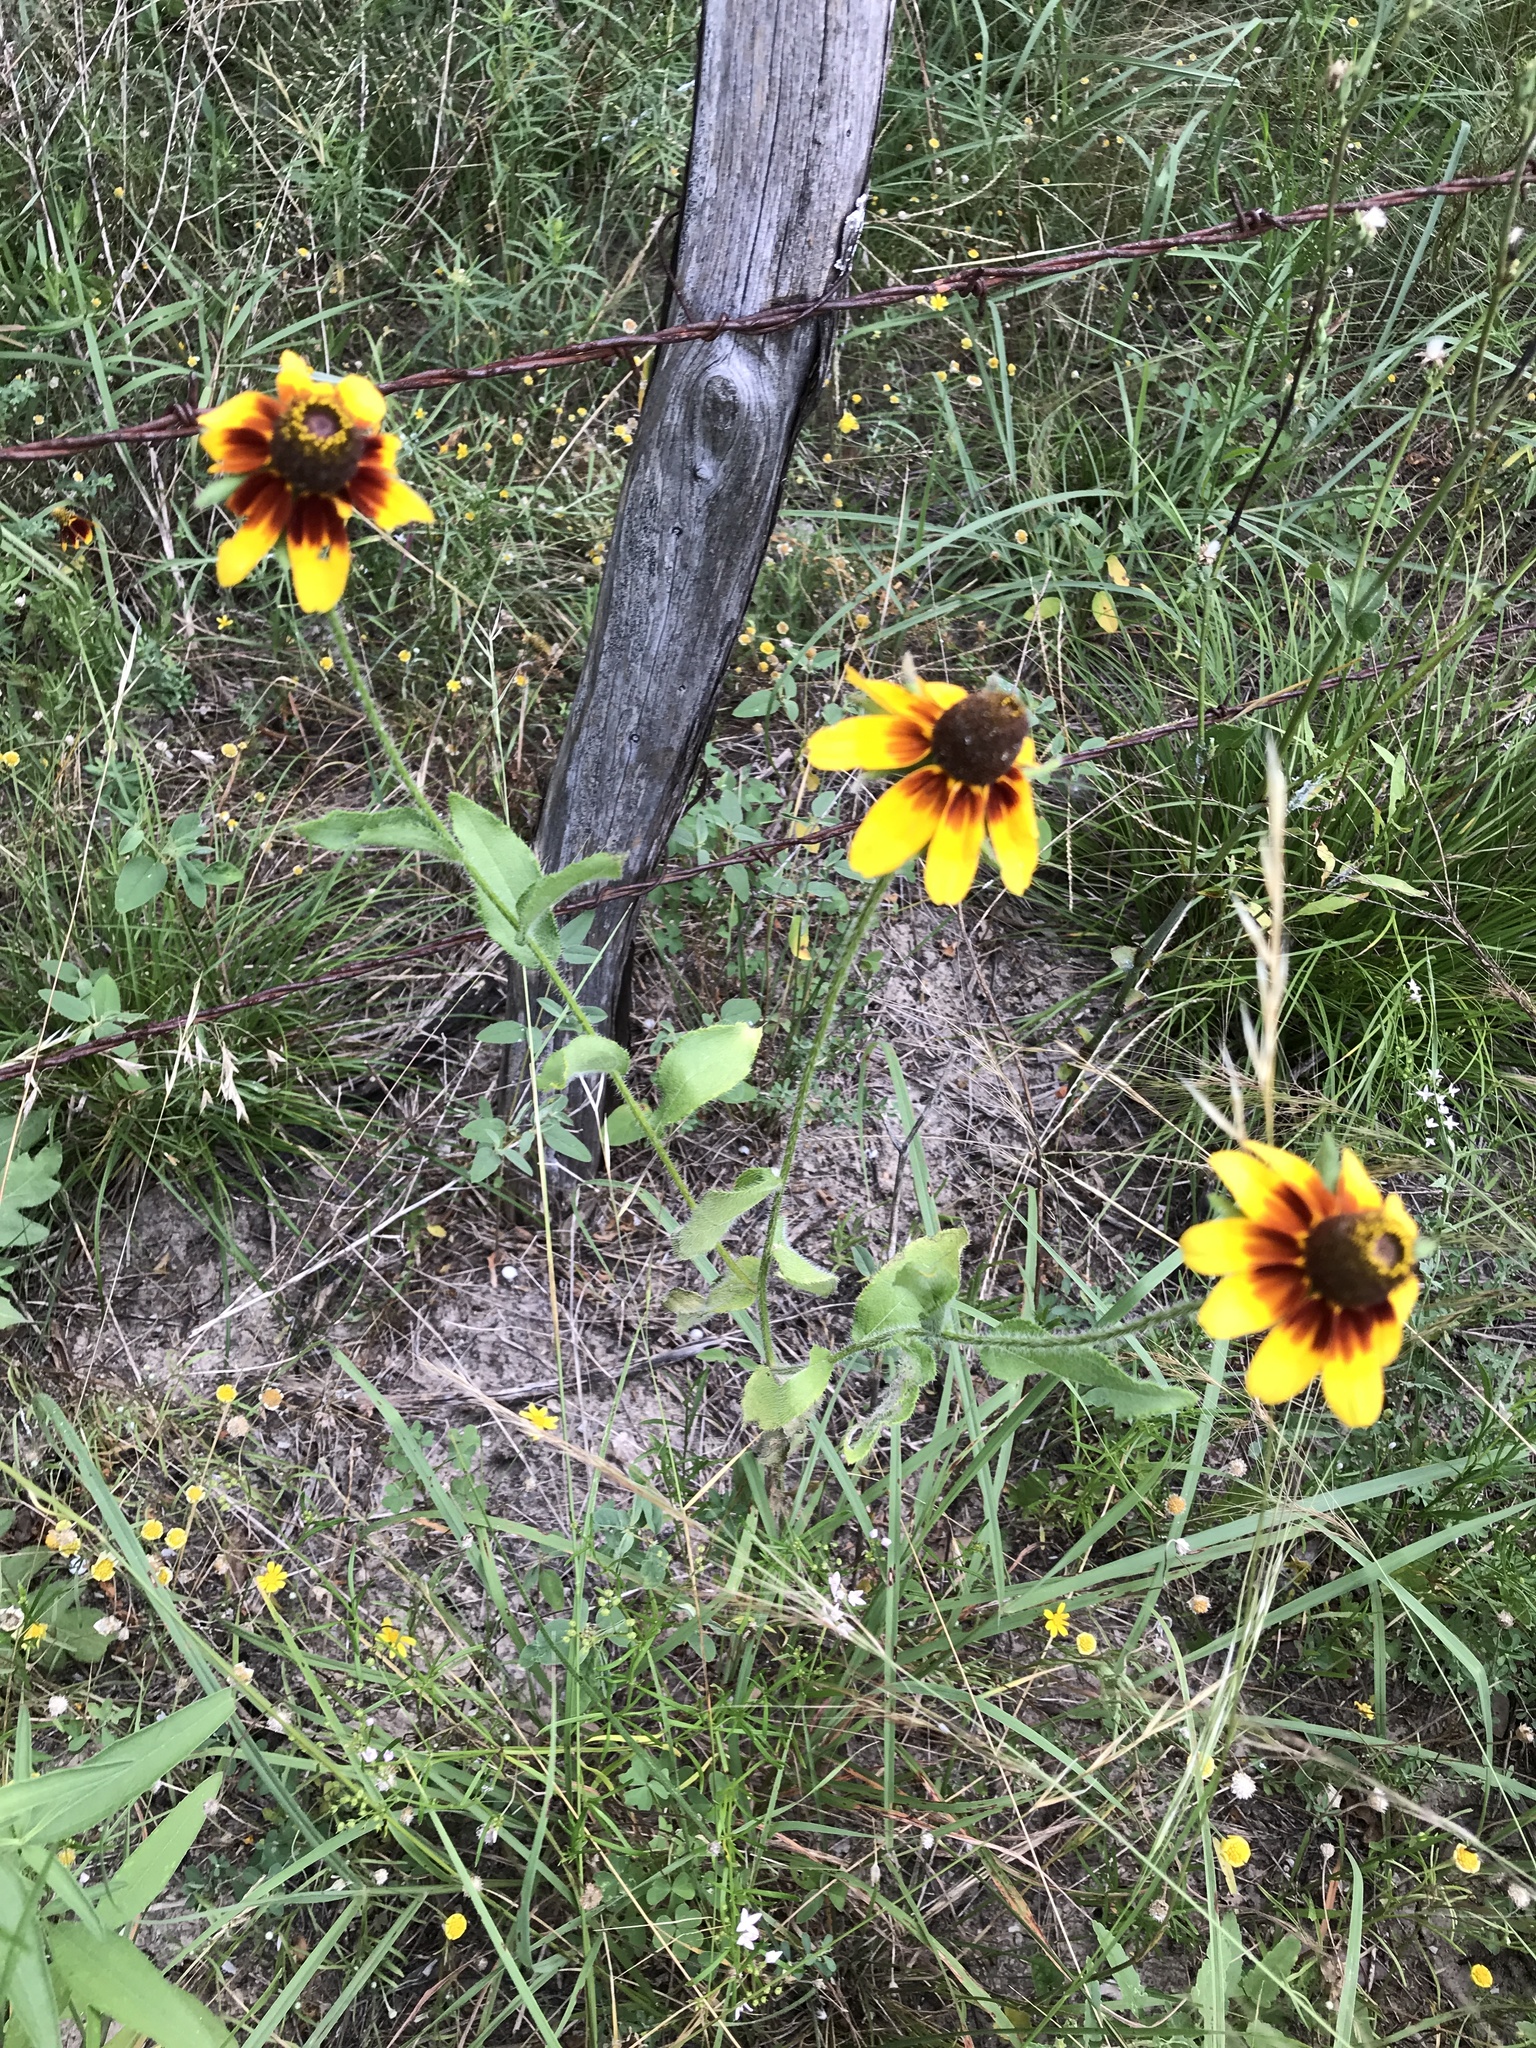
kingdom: Plantae
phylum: Tracheophyta
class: Magnoliopsida
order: Asterales
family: Asteraceae
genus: Rudbeckia
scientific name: Rudbeckia hirta
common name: Black-eyed-susan
